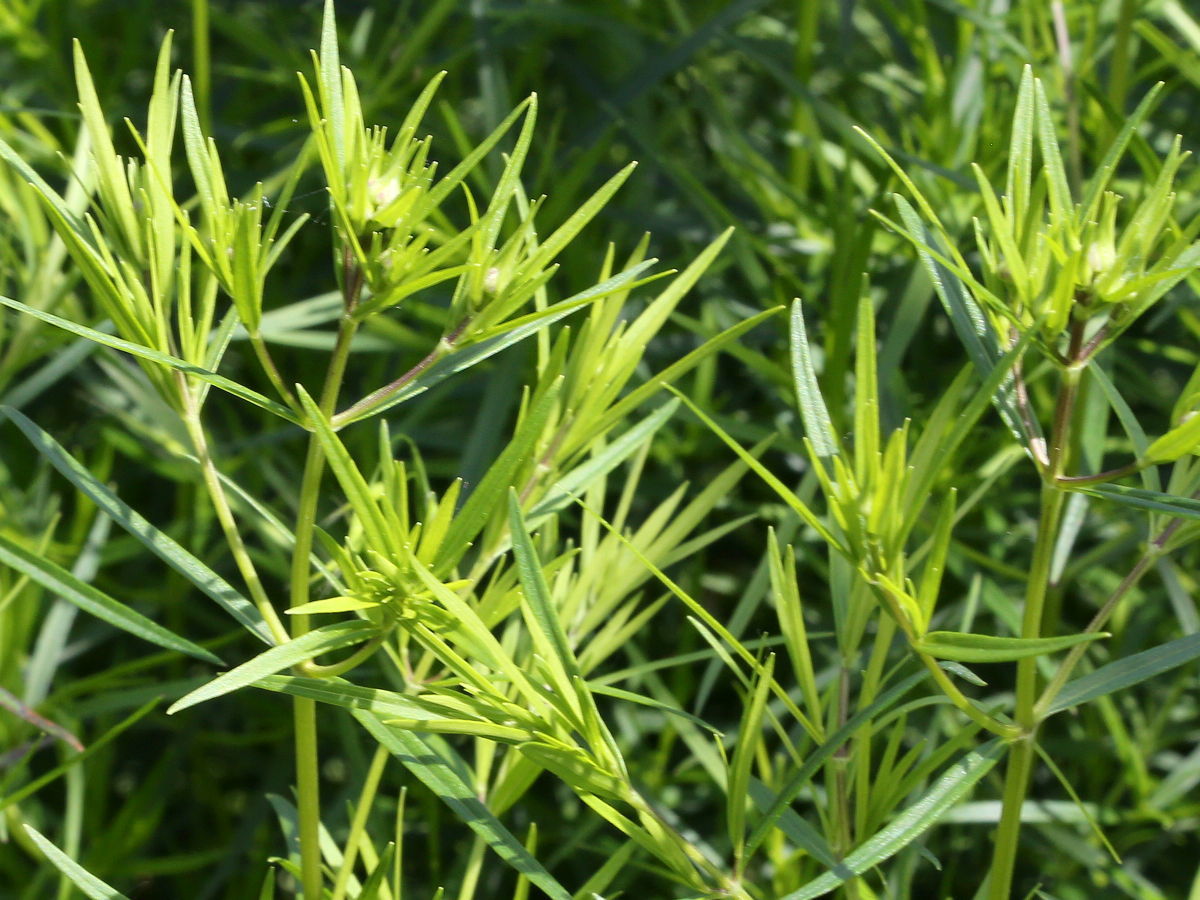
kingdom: Plantae
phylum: Tracheophyta
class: Magnoliopsida
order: Lamiales
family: Lamiaceae
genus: Pycnanthemum
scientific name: Pycnanthemum tenuifolium
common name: Narrow-leaf mountain-mint
